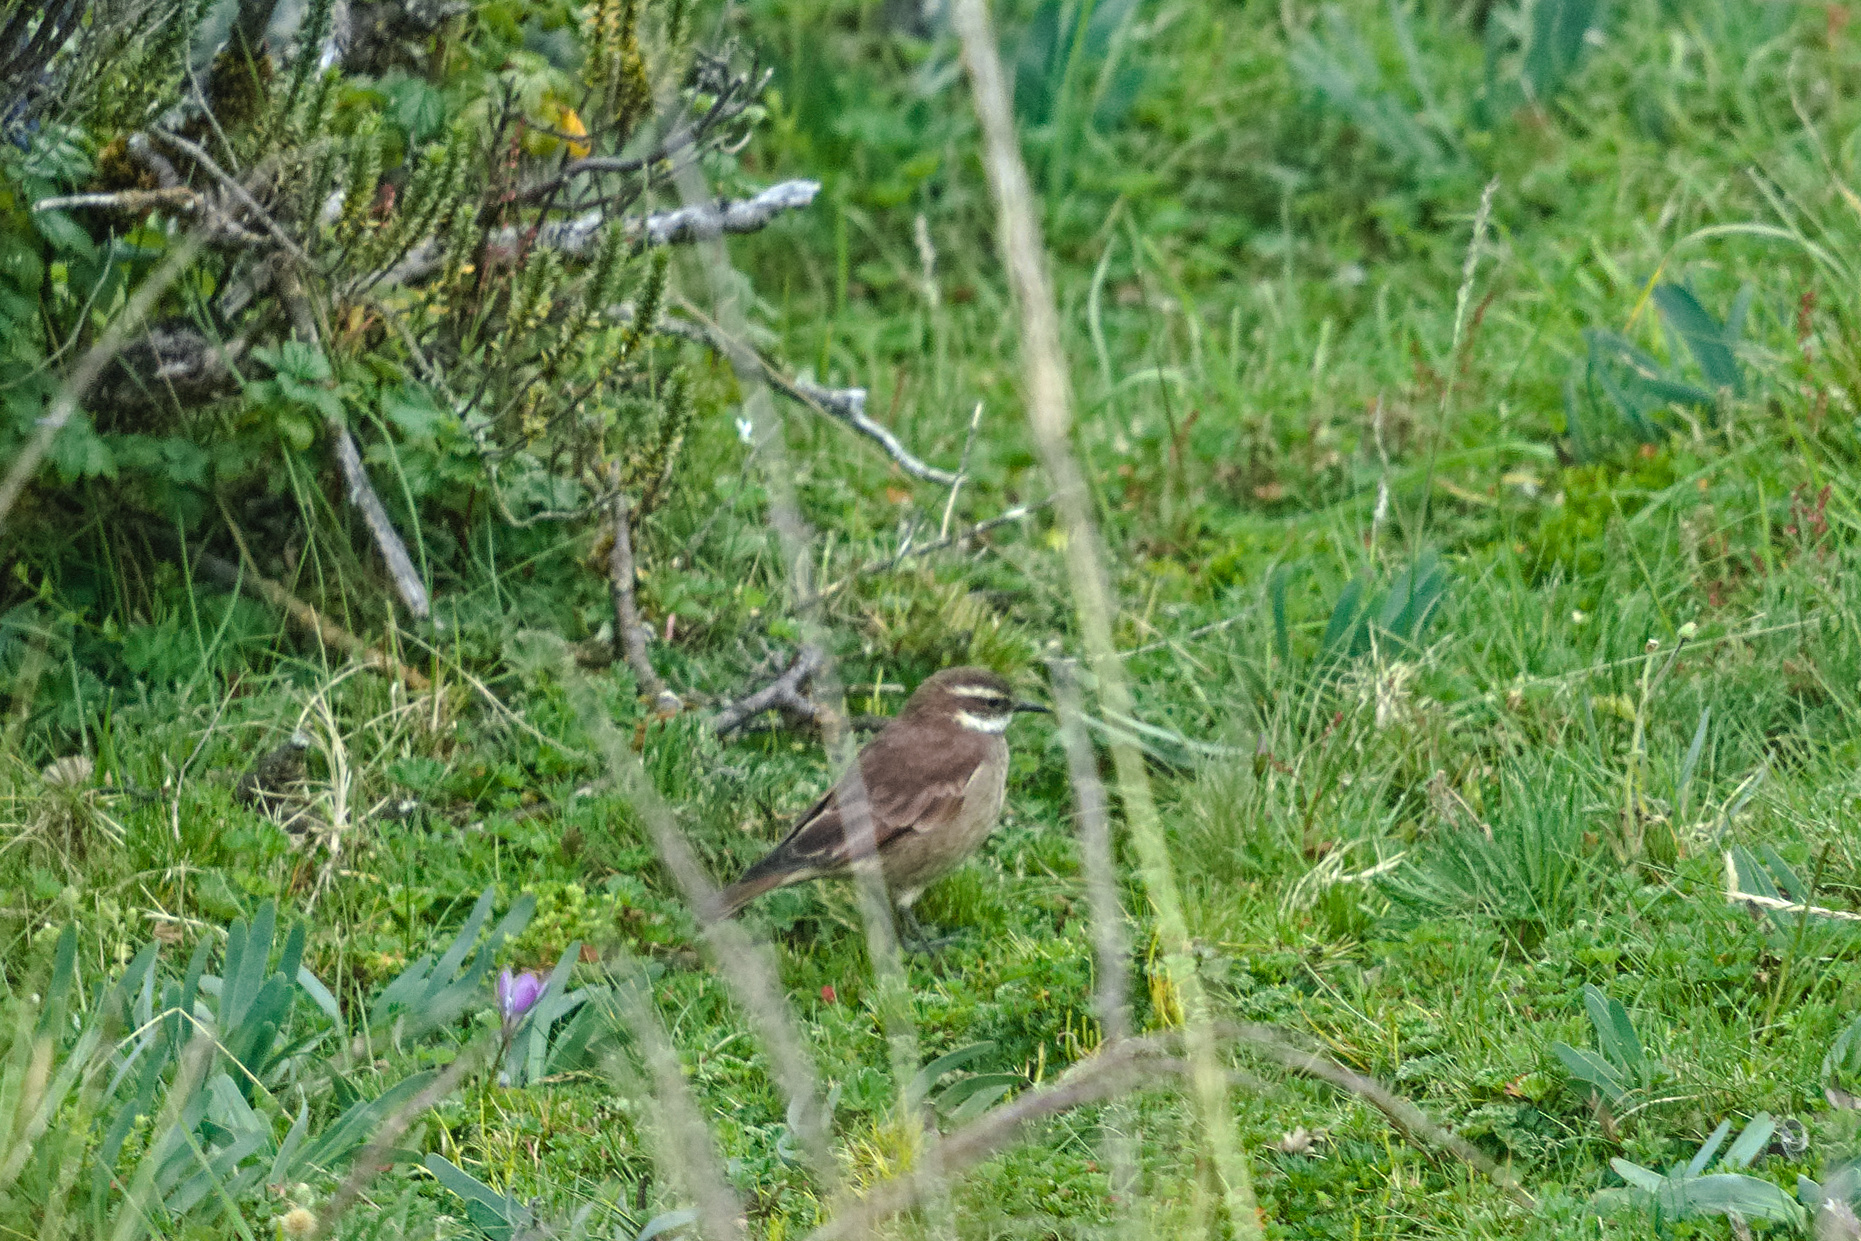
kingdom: Animalia
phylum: Chordata
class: Aves
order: Passeriformes
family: Furnariidae
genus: Cinclodes
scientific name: Cinclodes albidiventris
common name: Chestnut-winged cinclodes
